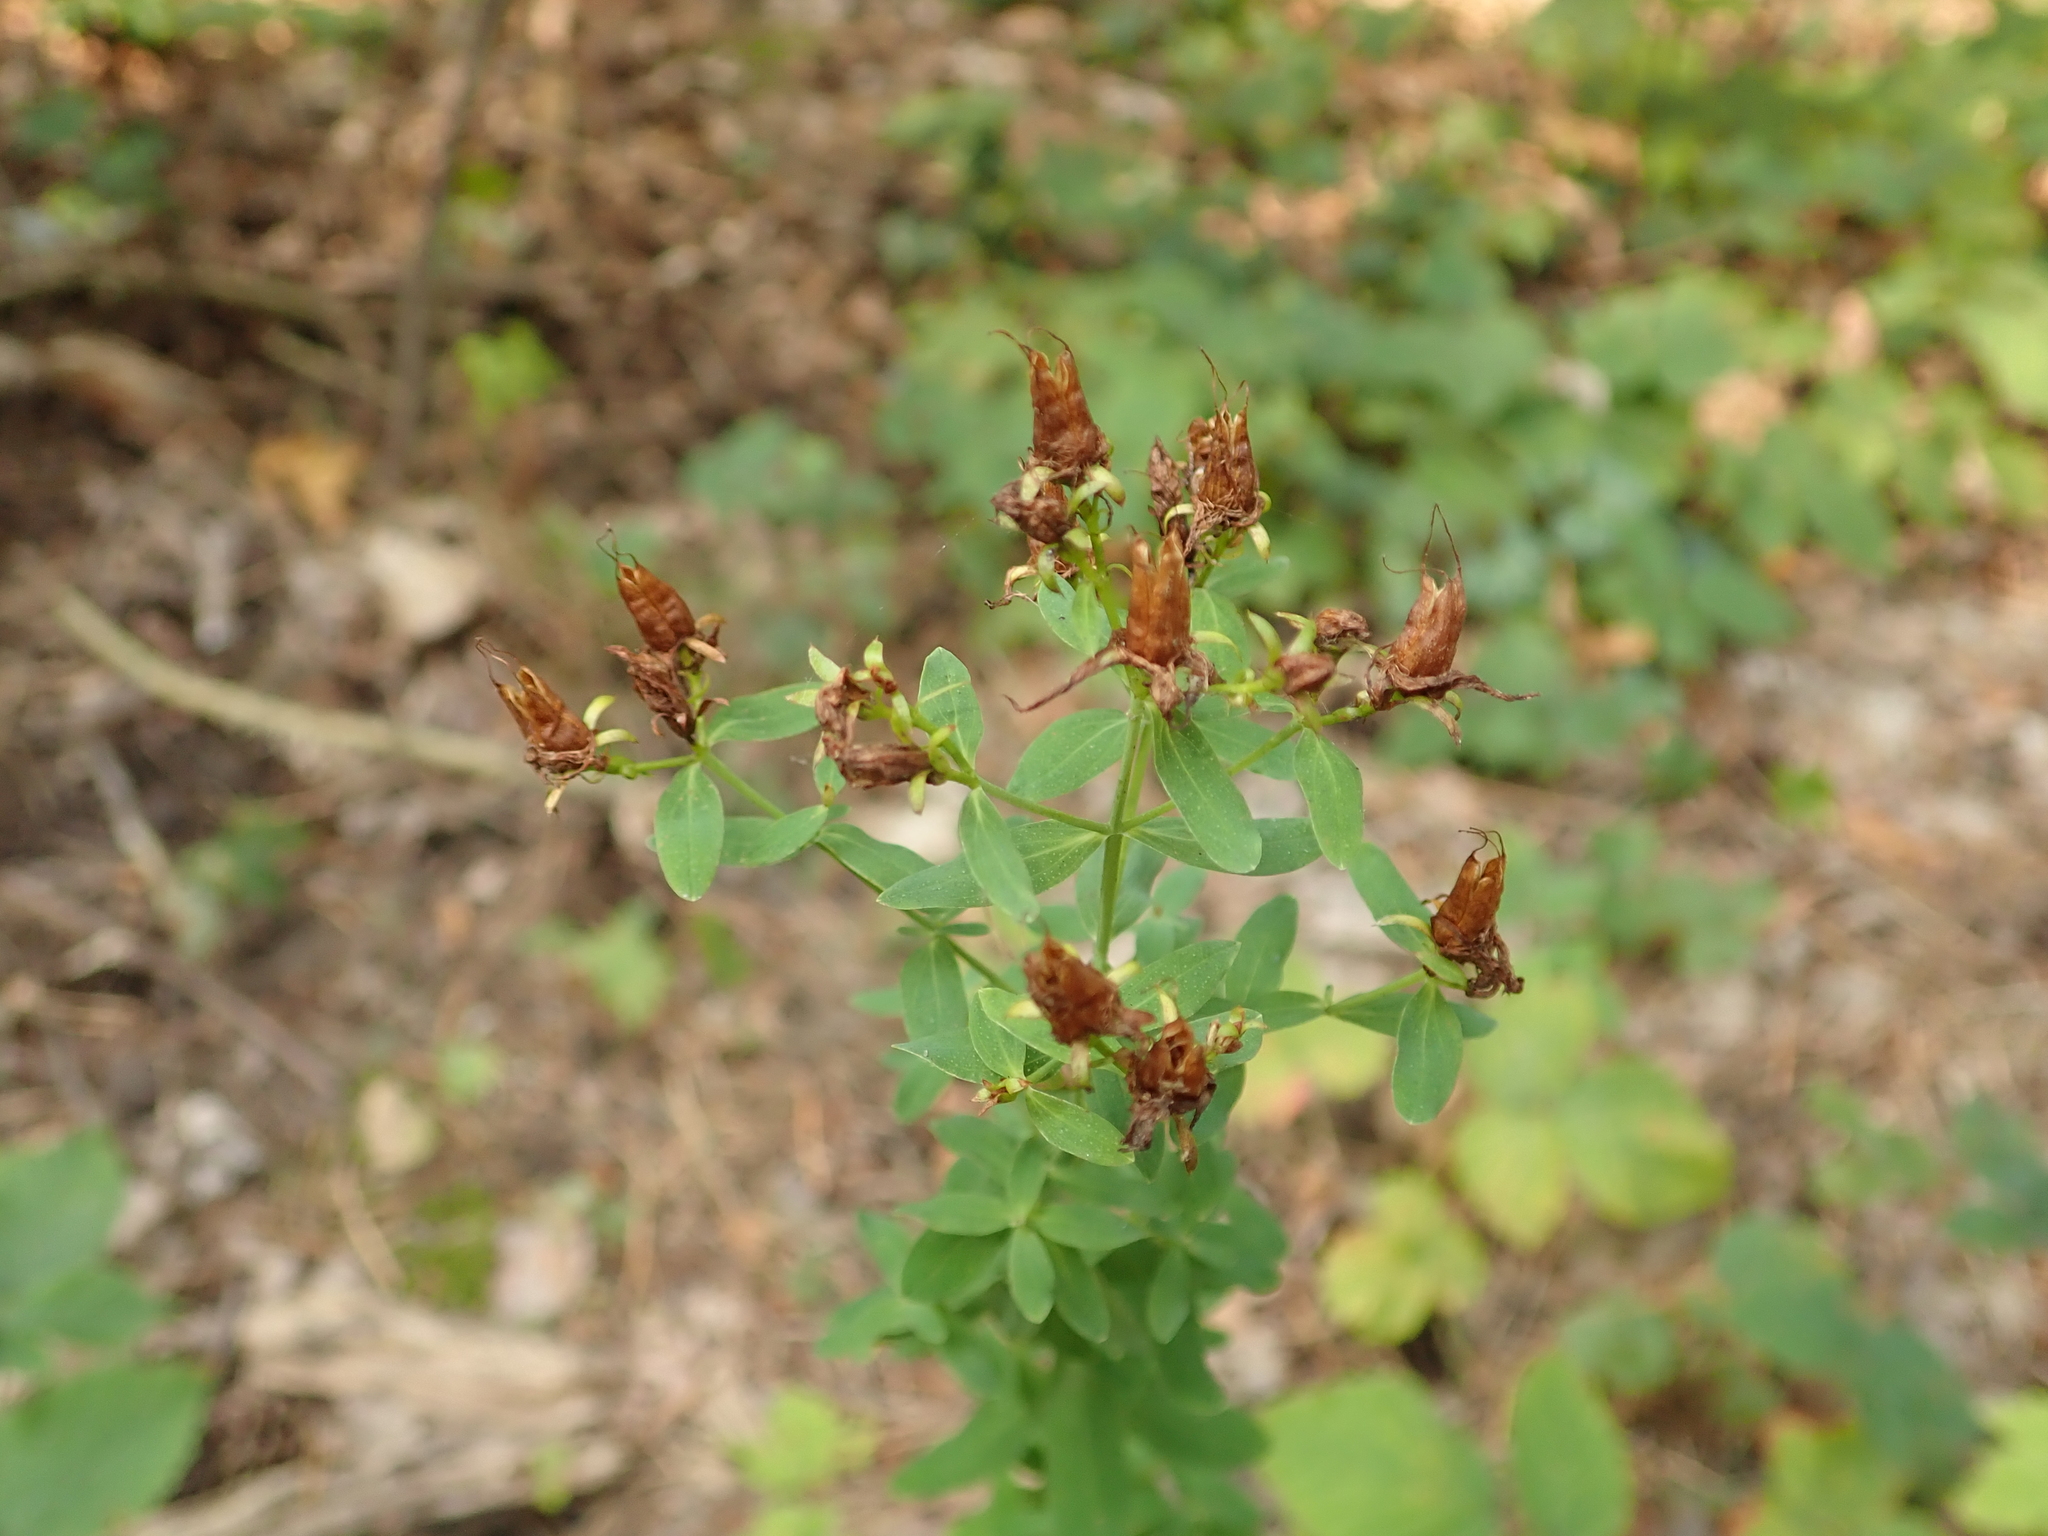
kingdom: Plantae
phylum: Tracheophyta
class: Magnoliopsida
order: Malpighiales
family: Hypericaceae
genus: Hypericum
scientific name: Hypericum perforatum
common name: Common st. johnswort
